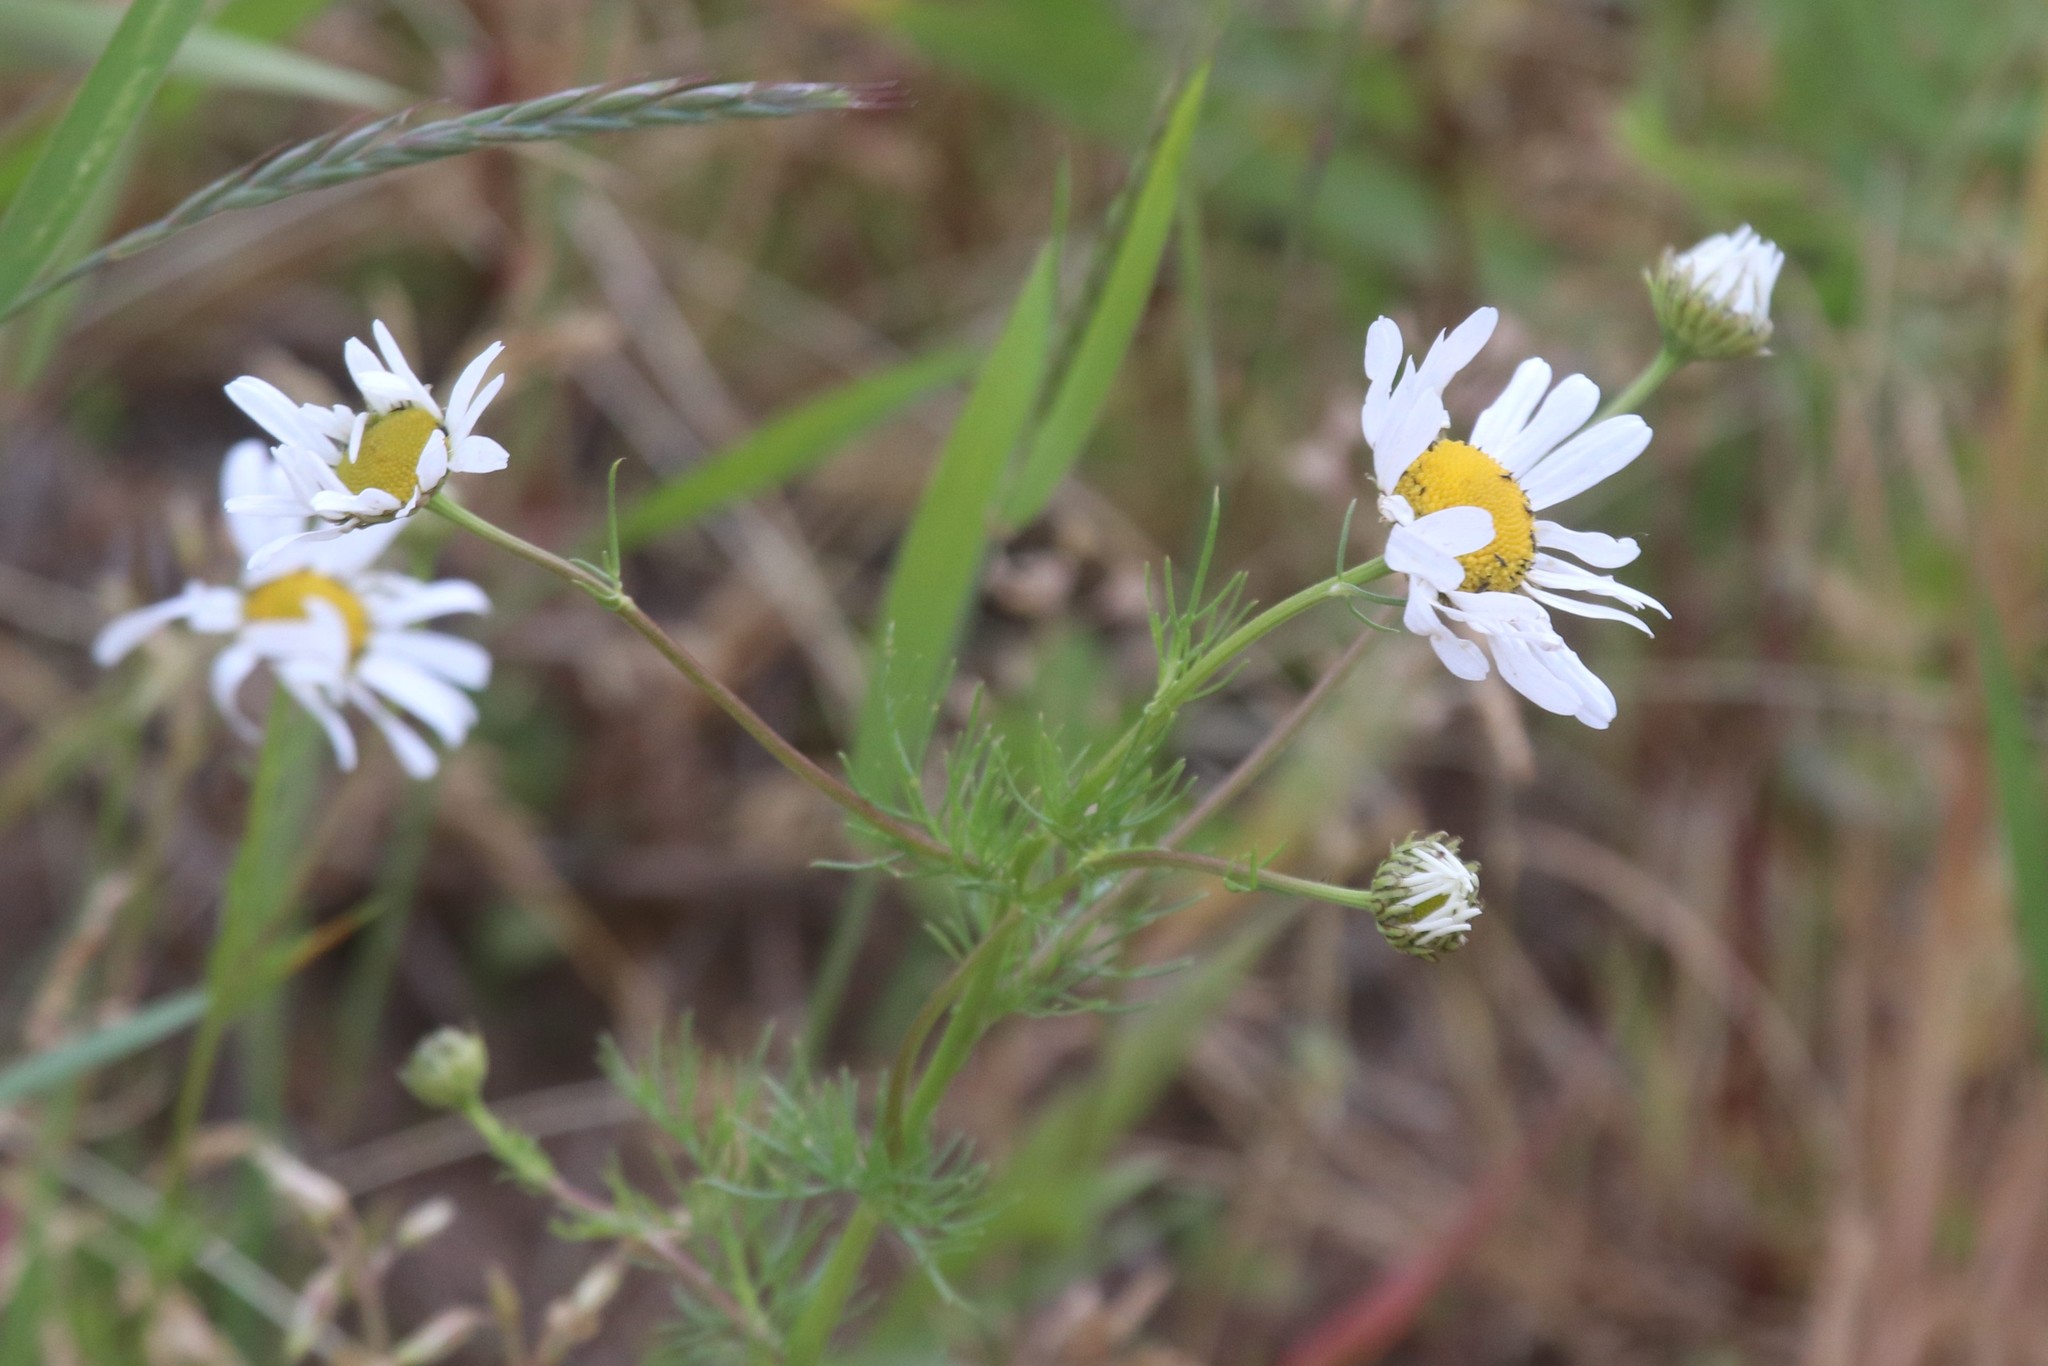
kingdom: Plantae
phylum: Tracheophyta
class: Magnoliopsida
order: Asterales
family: Asteraceae
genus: Tripleurospermum
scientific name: Tripleurospermum inodorum
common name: Scentless mayweed
